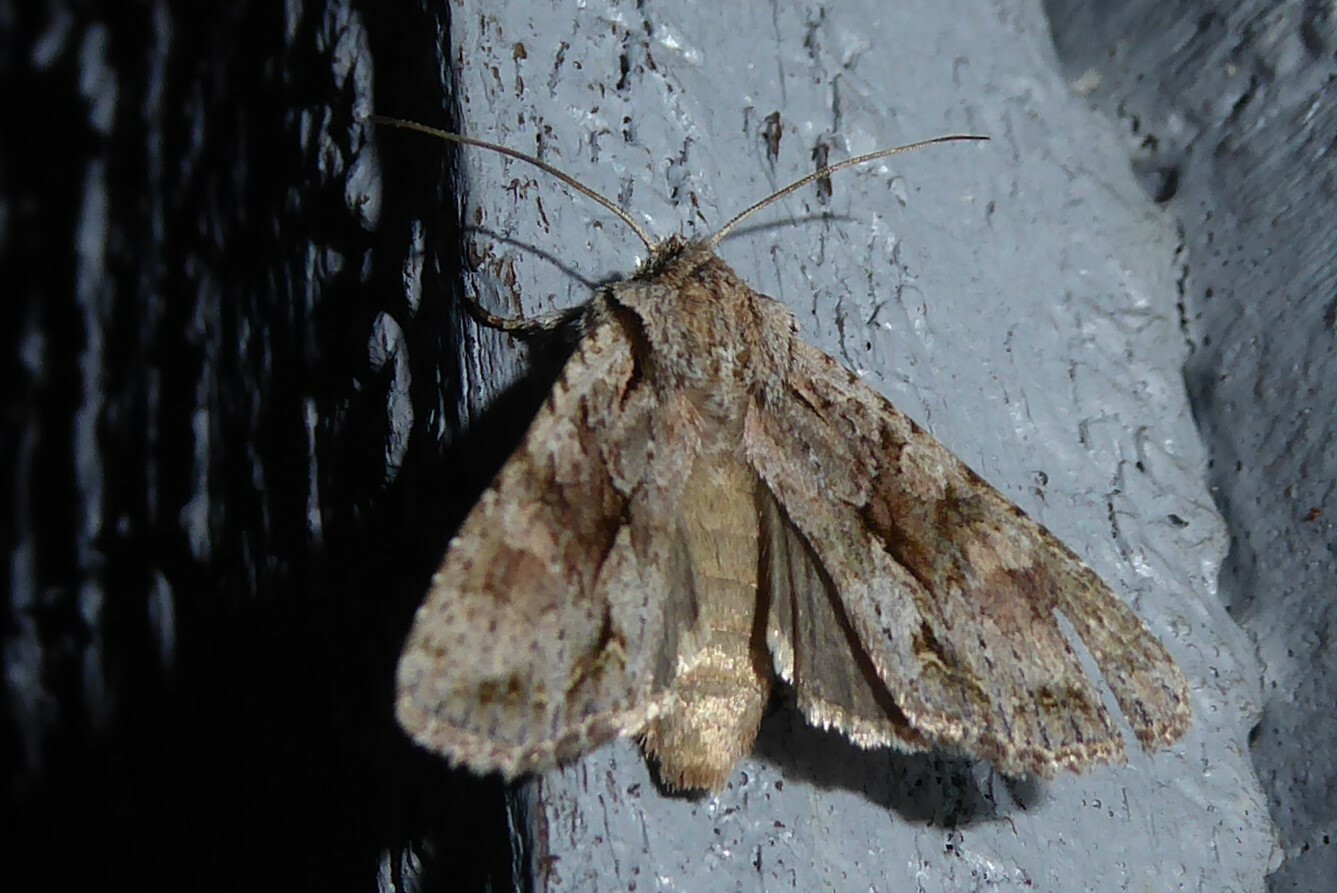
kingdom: Animalia
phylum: Arthropoda
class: Insecta
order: Lepidoptera
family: Noctuidae
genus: Ichneutica
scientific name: Ichneutica mutans
